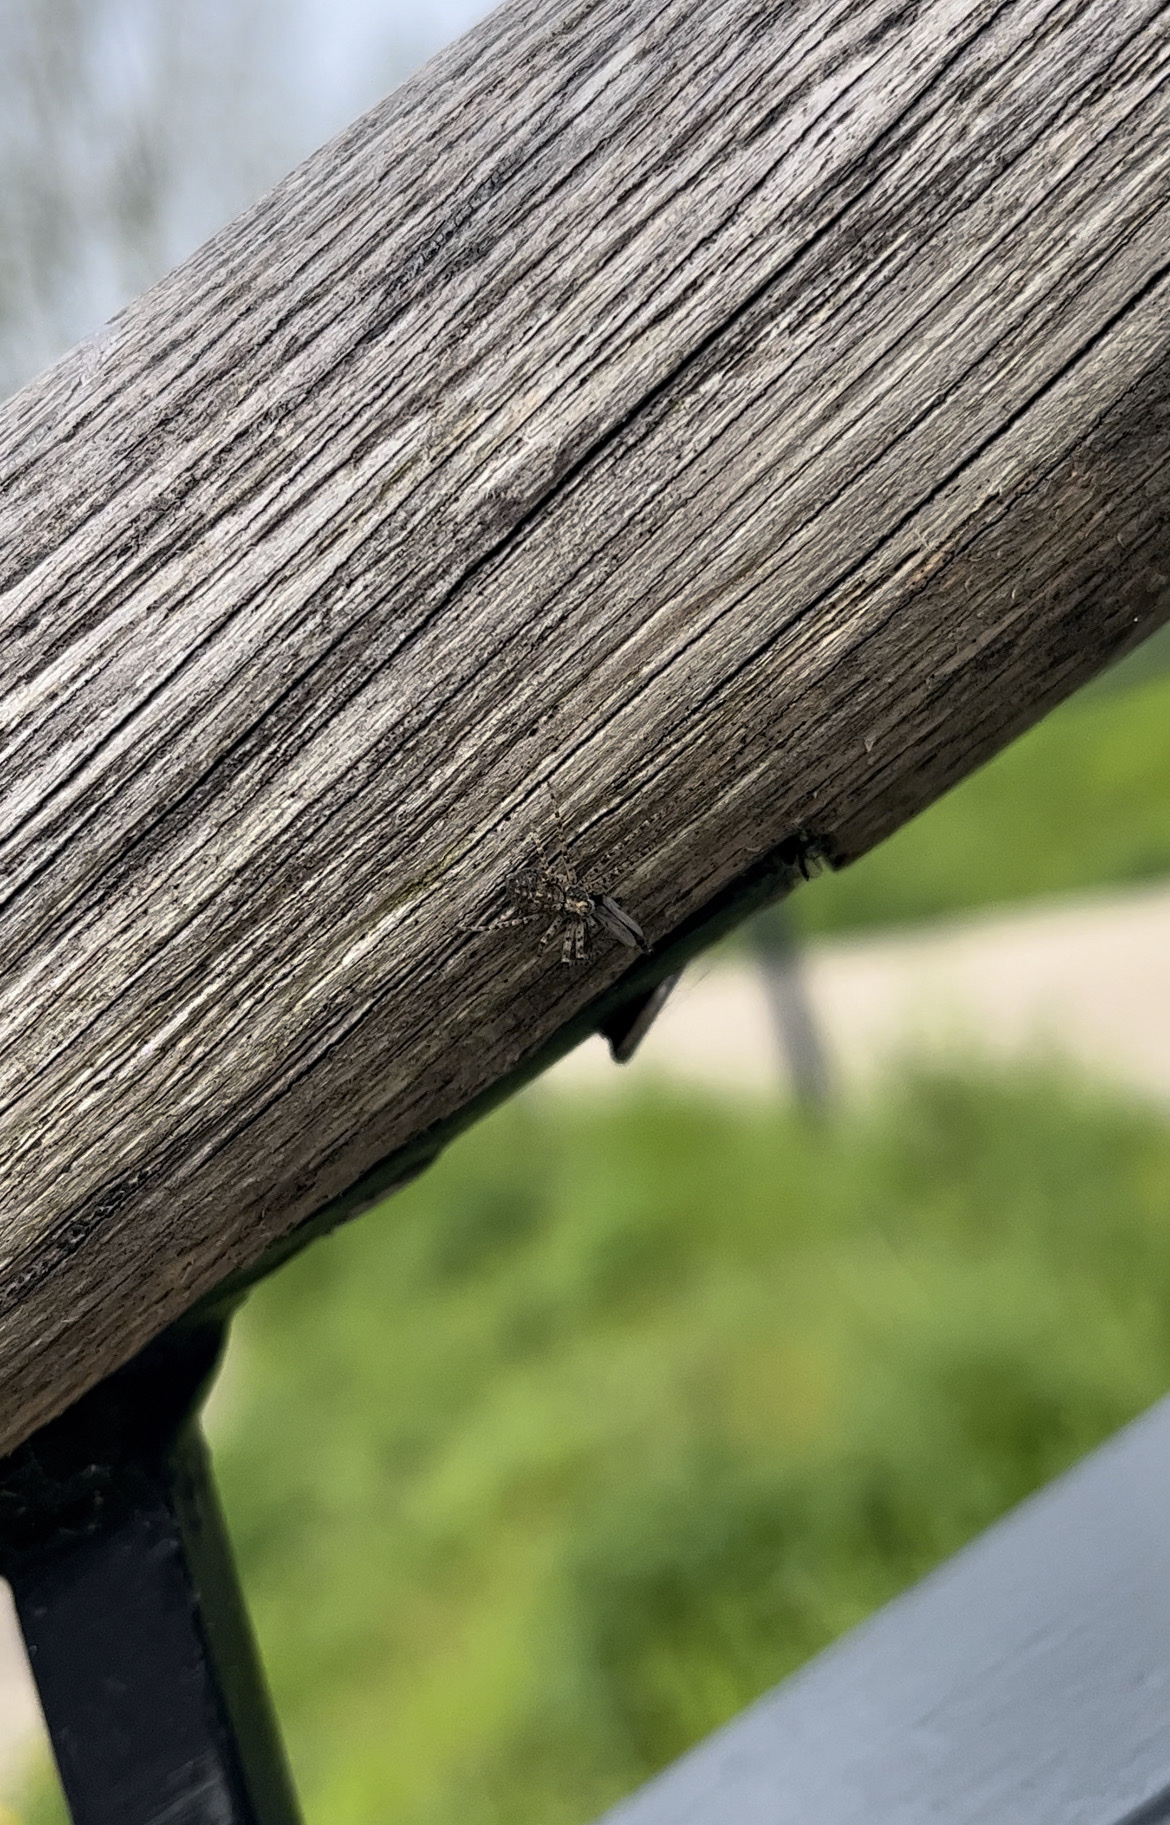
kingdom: Animalia
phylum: Arthropoda
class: Arachnida
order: Araneae
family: Philodromidae
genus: Philodromus
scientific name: Philodromus buxi
